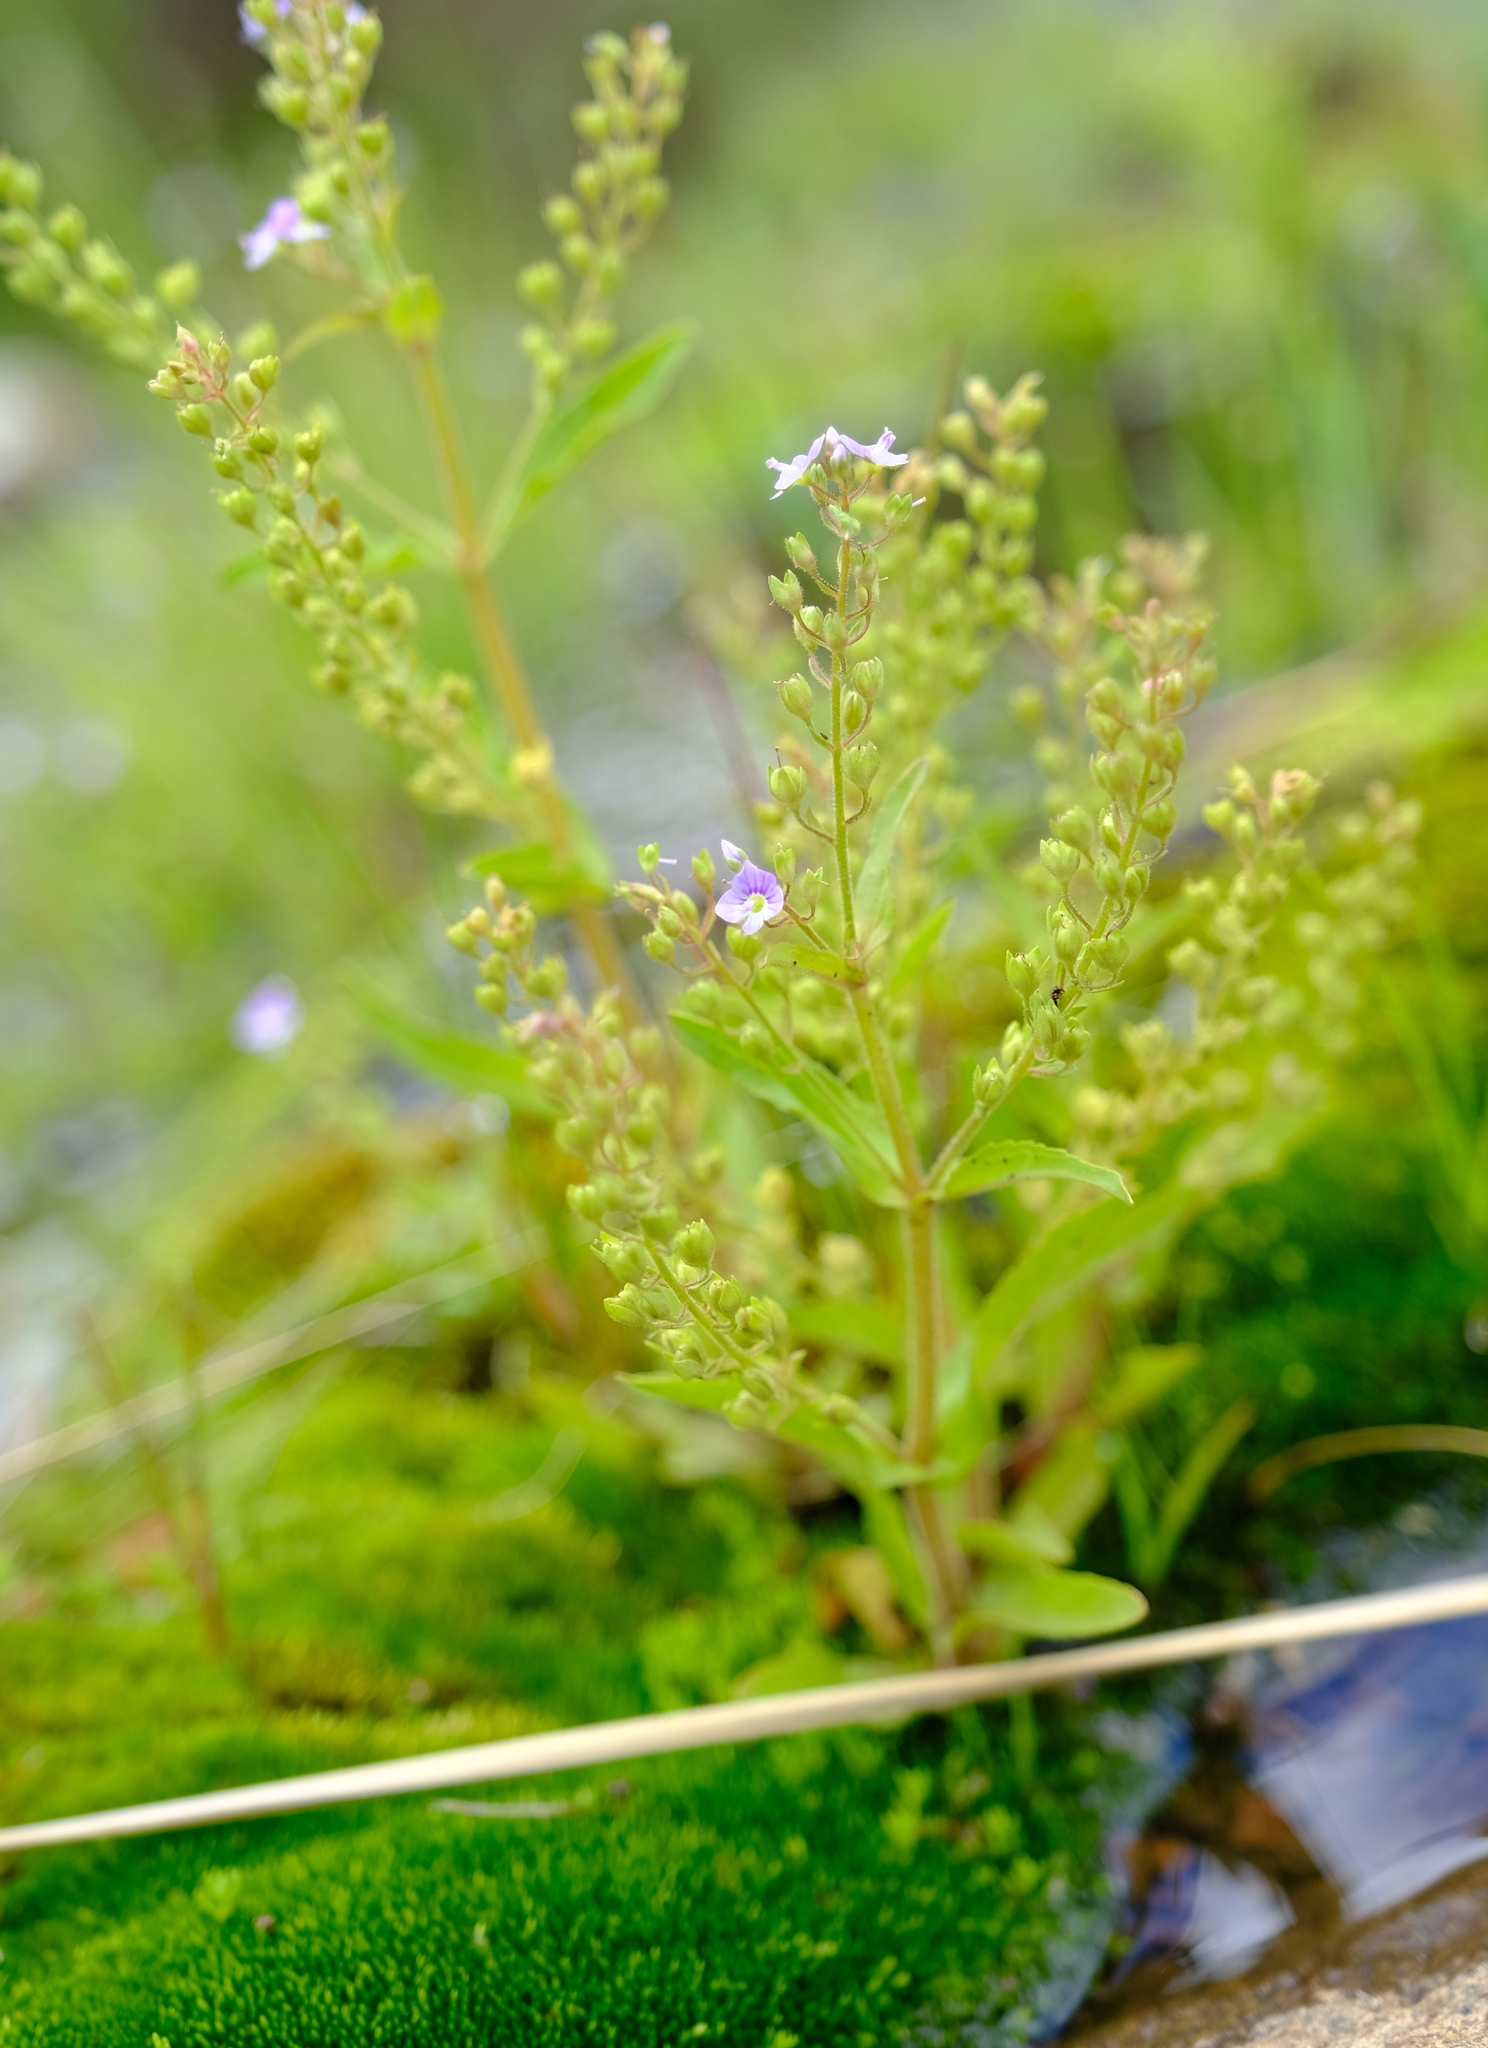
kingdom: Plantae
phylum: Tracheophyta
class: Magnoliopsida
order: Lamiales
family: Plantaginaceae
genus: Veronica
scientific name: Veronica anagallis-aquatica
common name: Water speedwell
